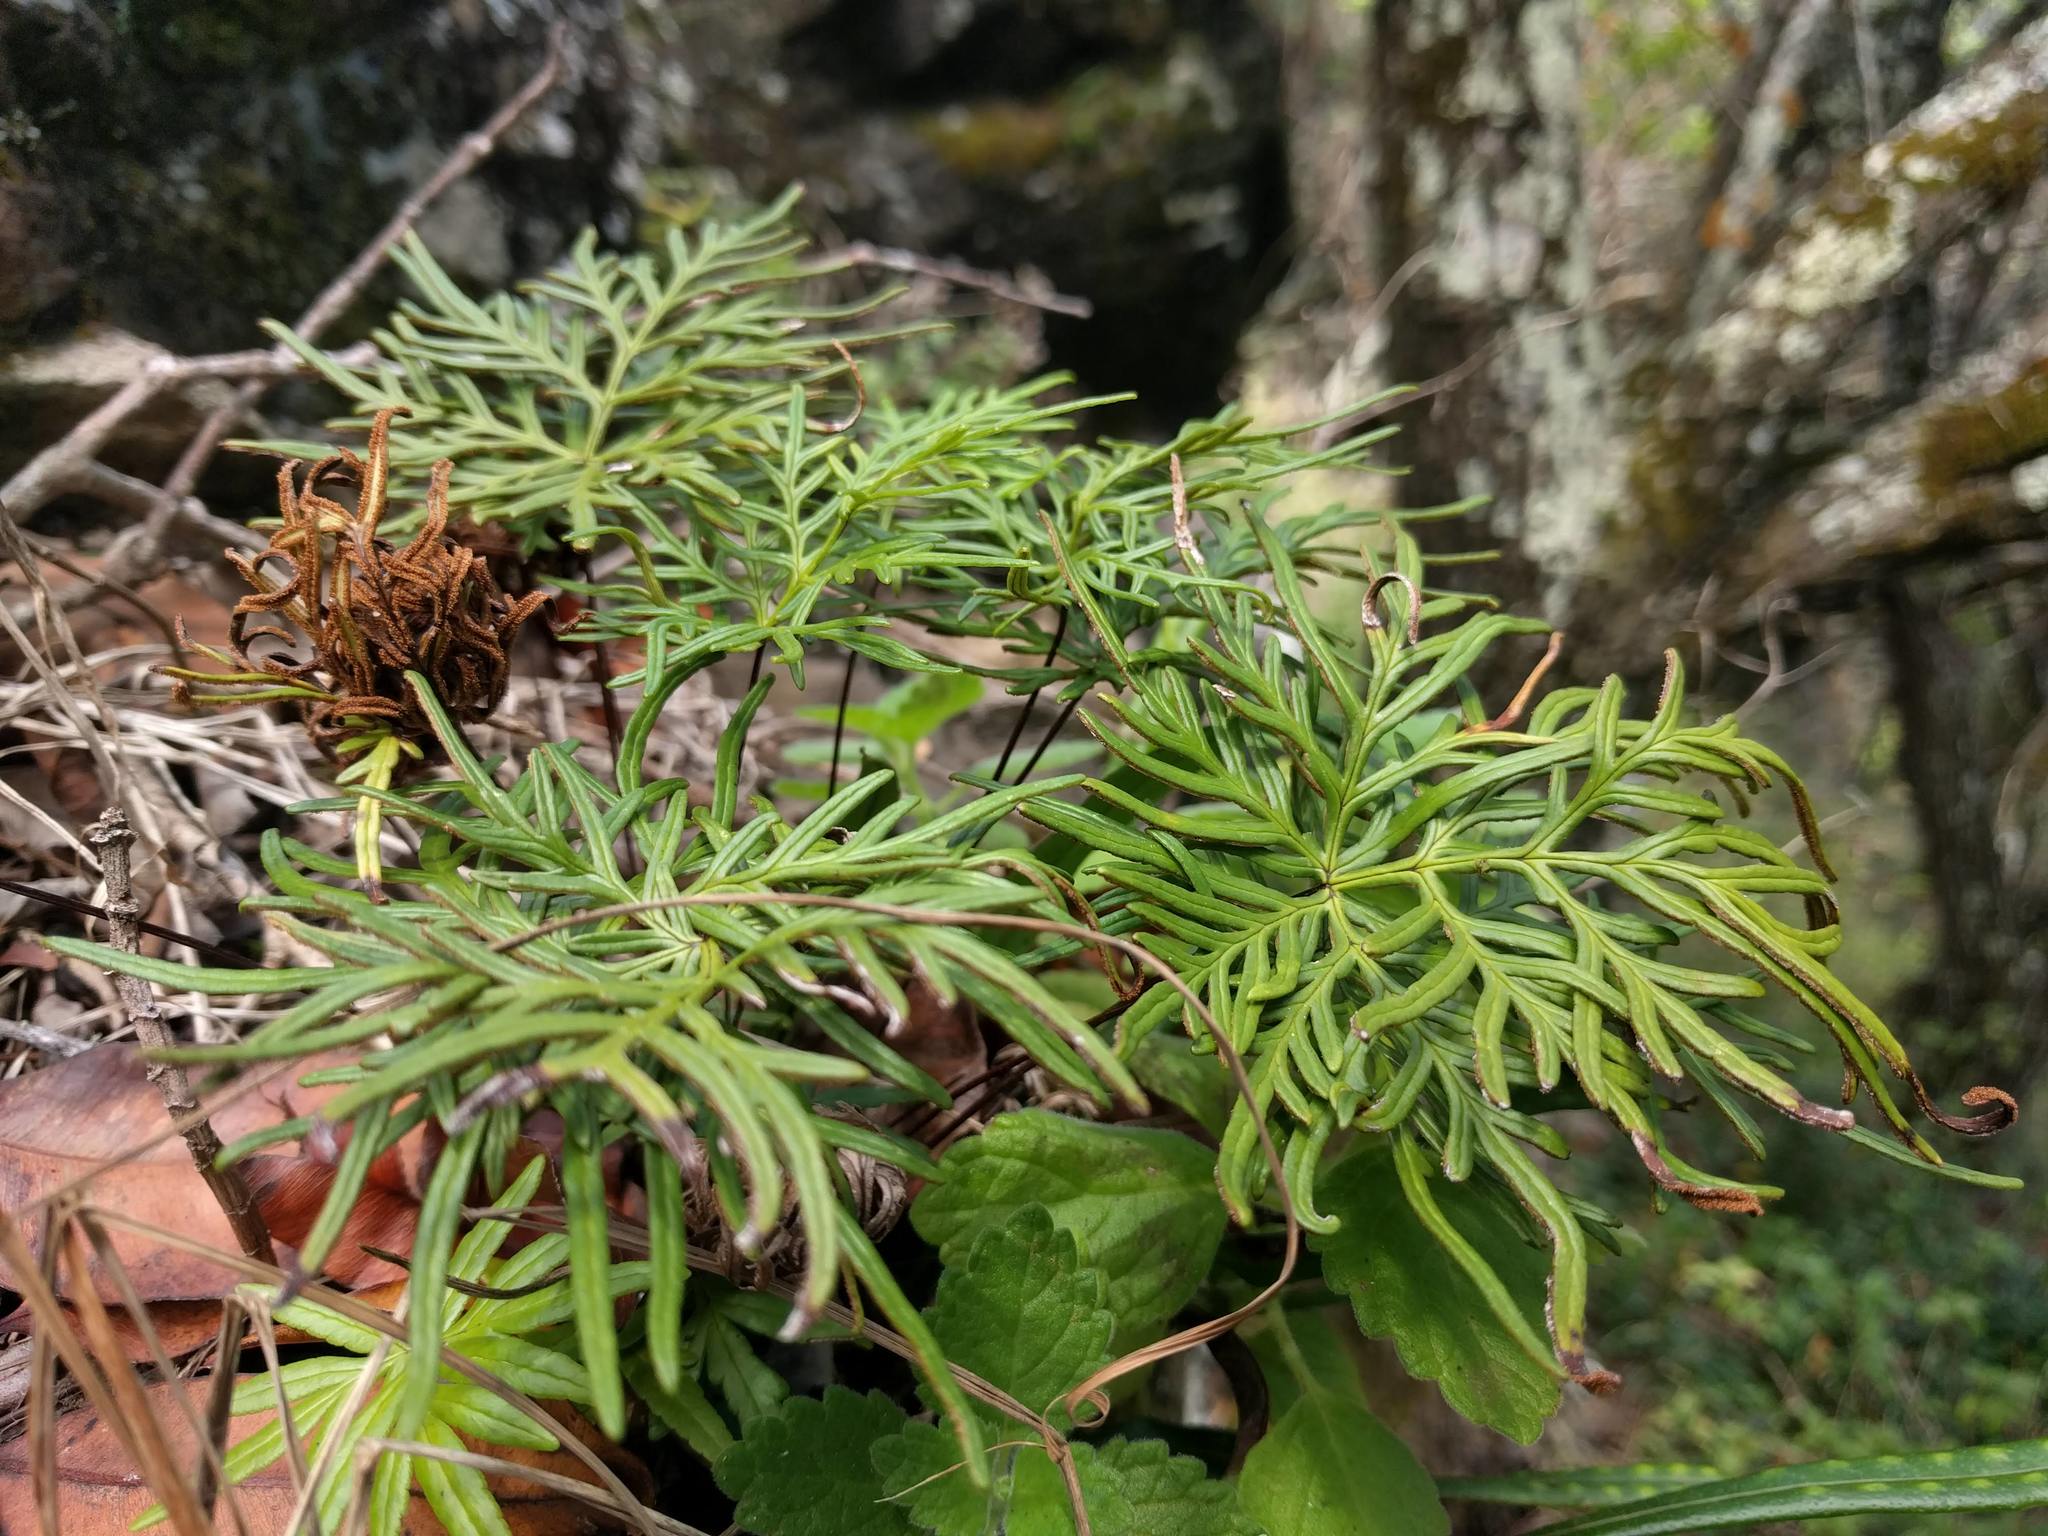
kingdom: Plantae
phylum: Tracheophyta
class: Polypodiopsida
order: Polypodiales
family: Pteridaceae
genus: Doryopteris
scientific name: Doryopteris decipiens
